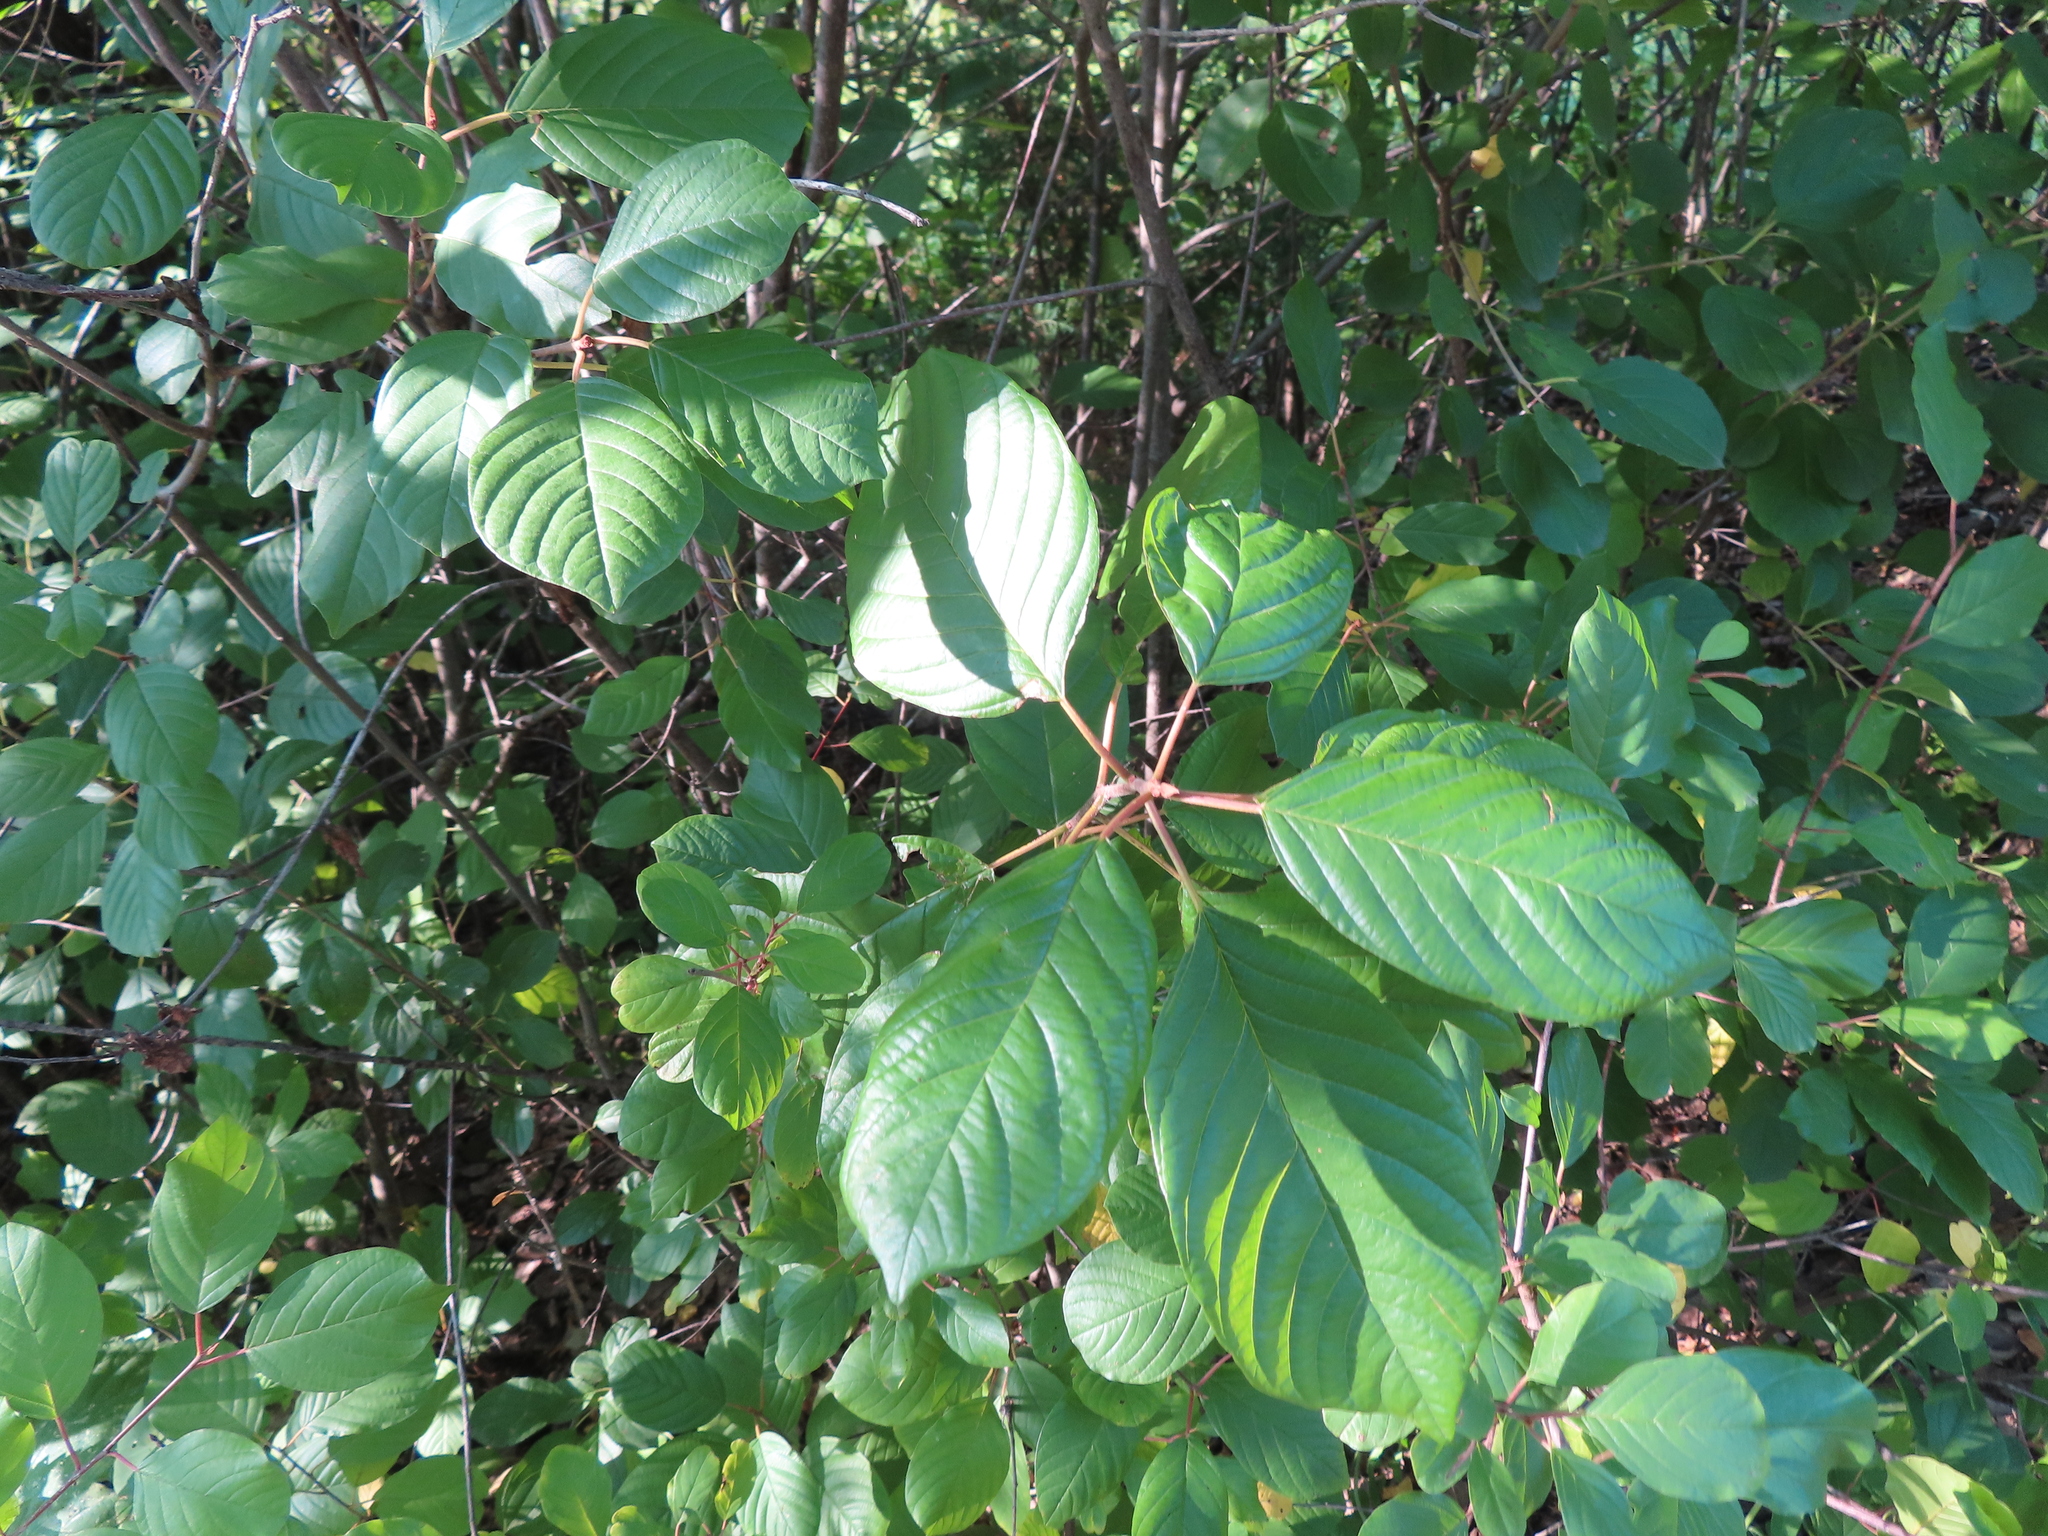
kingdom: Plantae
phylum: Tracheophyta
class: Magnoliopsida
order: Rosales
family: Rhamnaceae
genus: Frangula
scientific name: Frangula alnus
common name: Alder buckthorn
